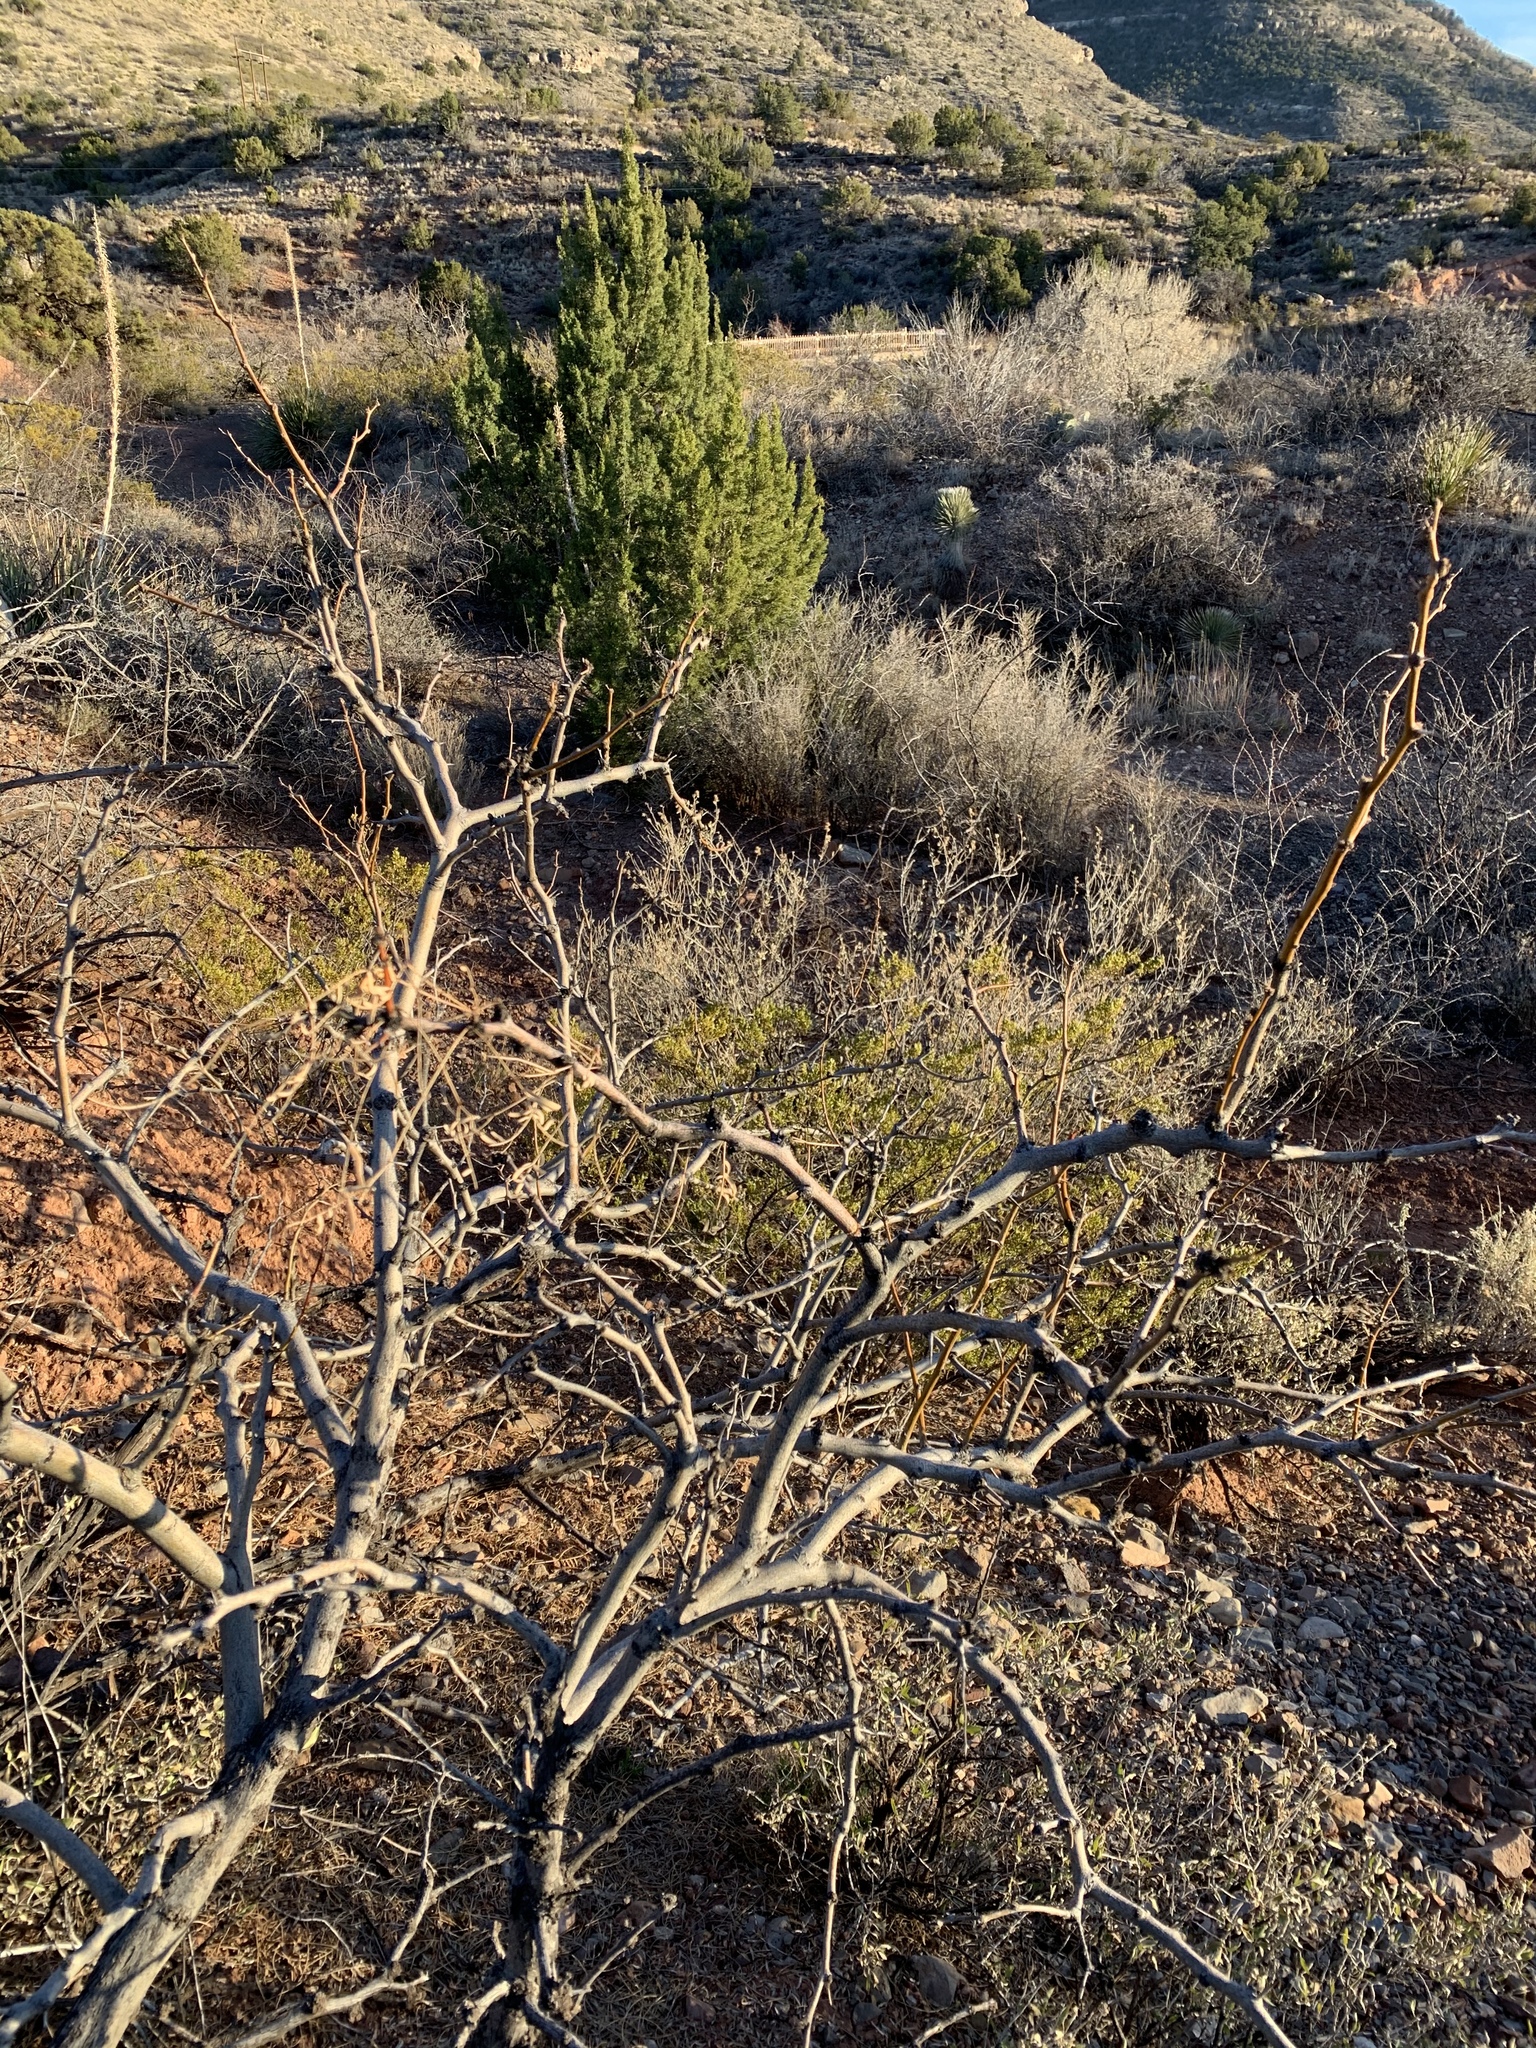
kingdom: Plantae
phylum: Tracheophyta
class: Magnoliopsida
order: Fabales
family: Fabaceae
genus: Prosopis
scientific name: Prosopis glandulosa
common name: Honey mesquite
